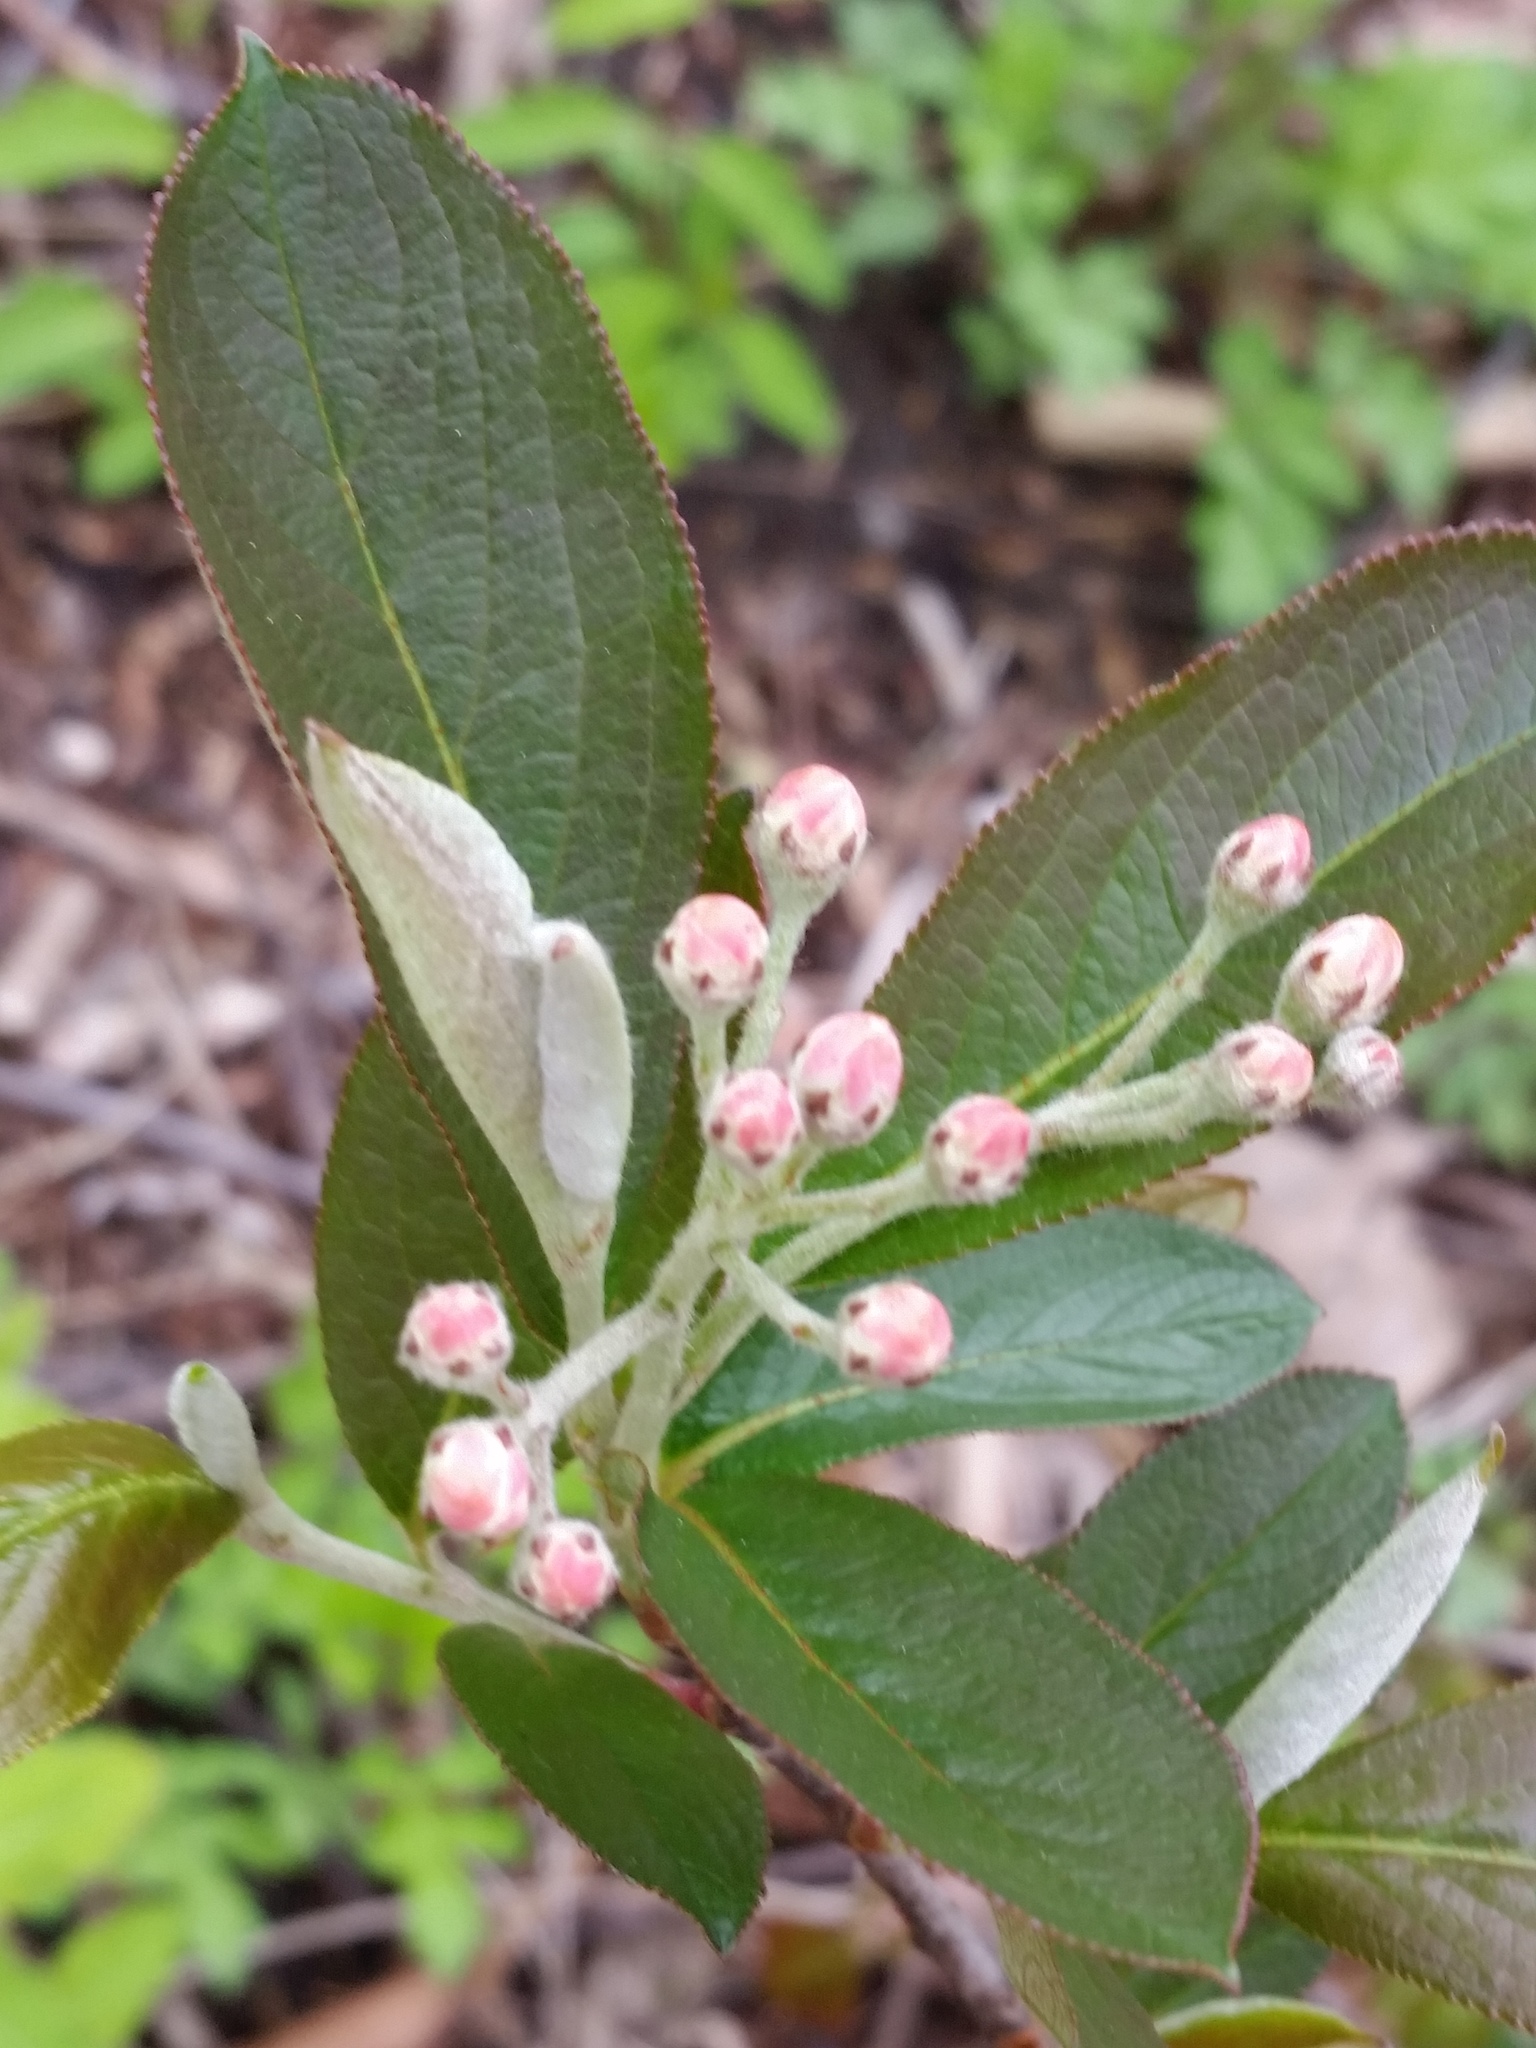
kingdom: Plantae
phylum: Tracheophyta
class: Magnoliopsida
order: Rosales
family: Rosaceae
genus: Aronia
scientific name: Aronia melanocarpa
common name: Black chokeberry
